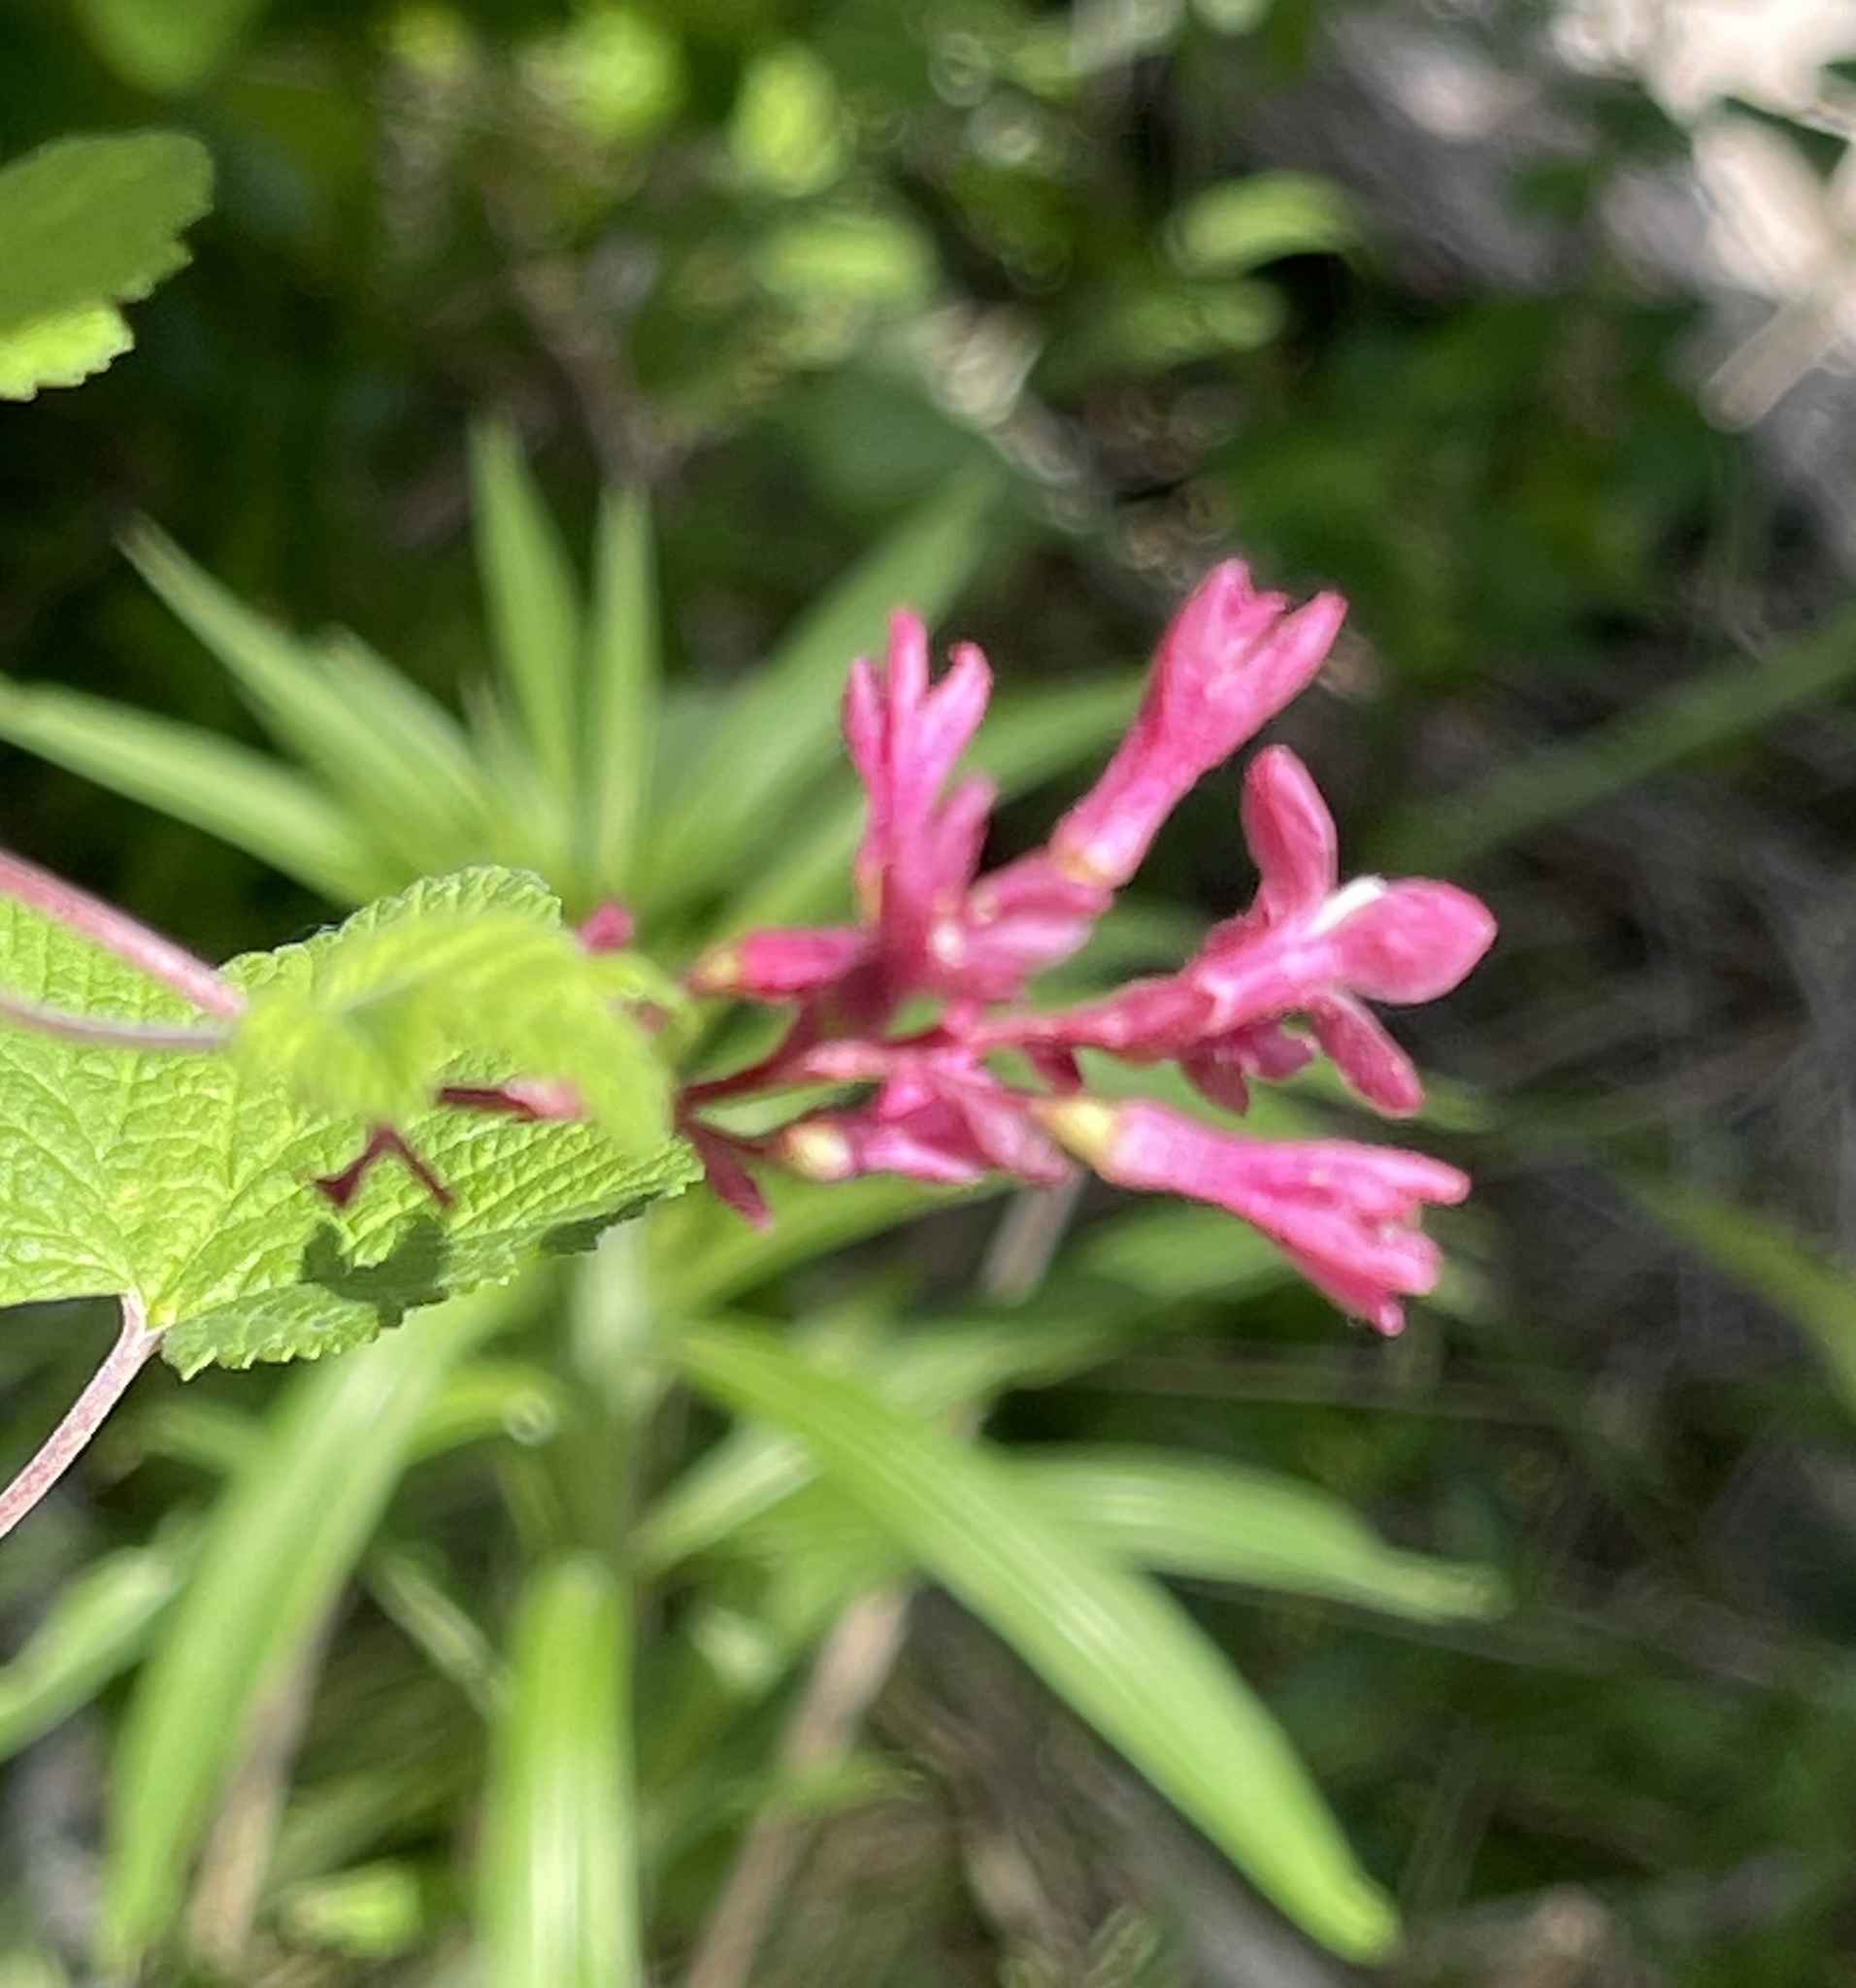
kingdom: Plantae
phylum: Tracheophyta
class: Magnoliopsida
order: Saxifragales
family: Grossulariaceae
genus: Ribes
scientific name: Ribes sanguineum
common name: Flowering currant
